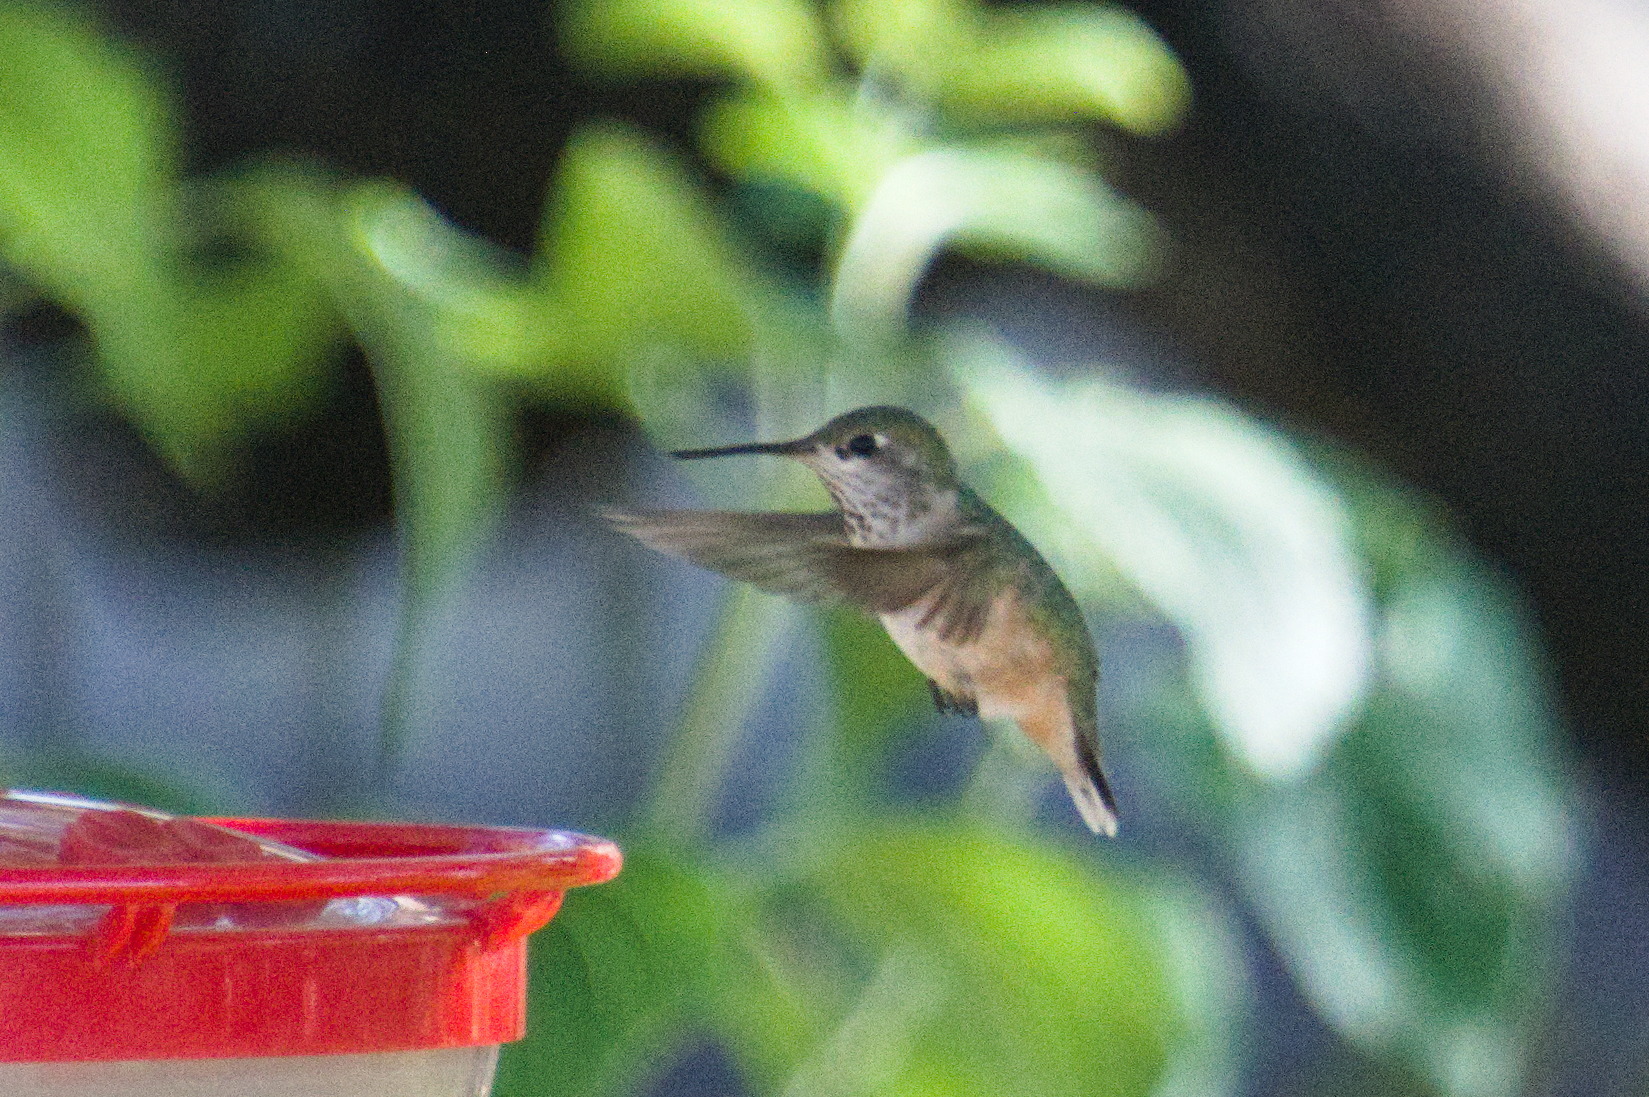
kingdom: Animalia
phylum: Chordata
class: Aves
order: Apodiformes
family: Trochilidae
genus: Selasphorus
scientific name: Selasphorus calliope
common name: Calliope hummingbird
